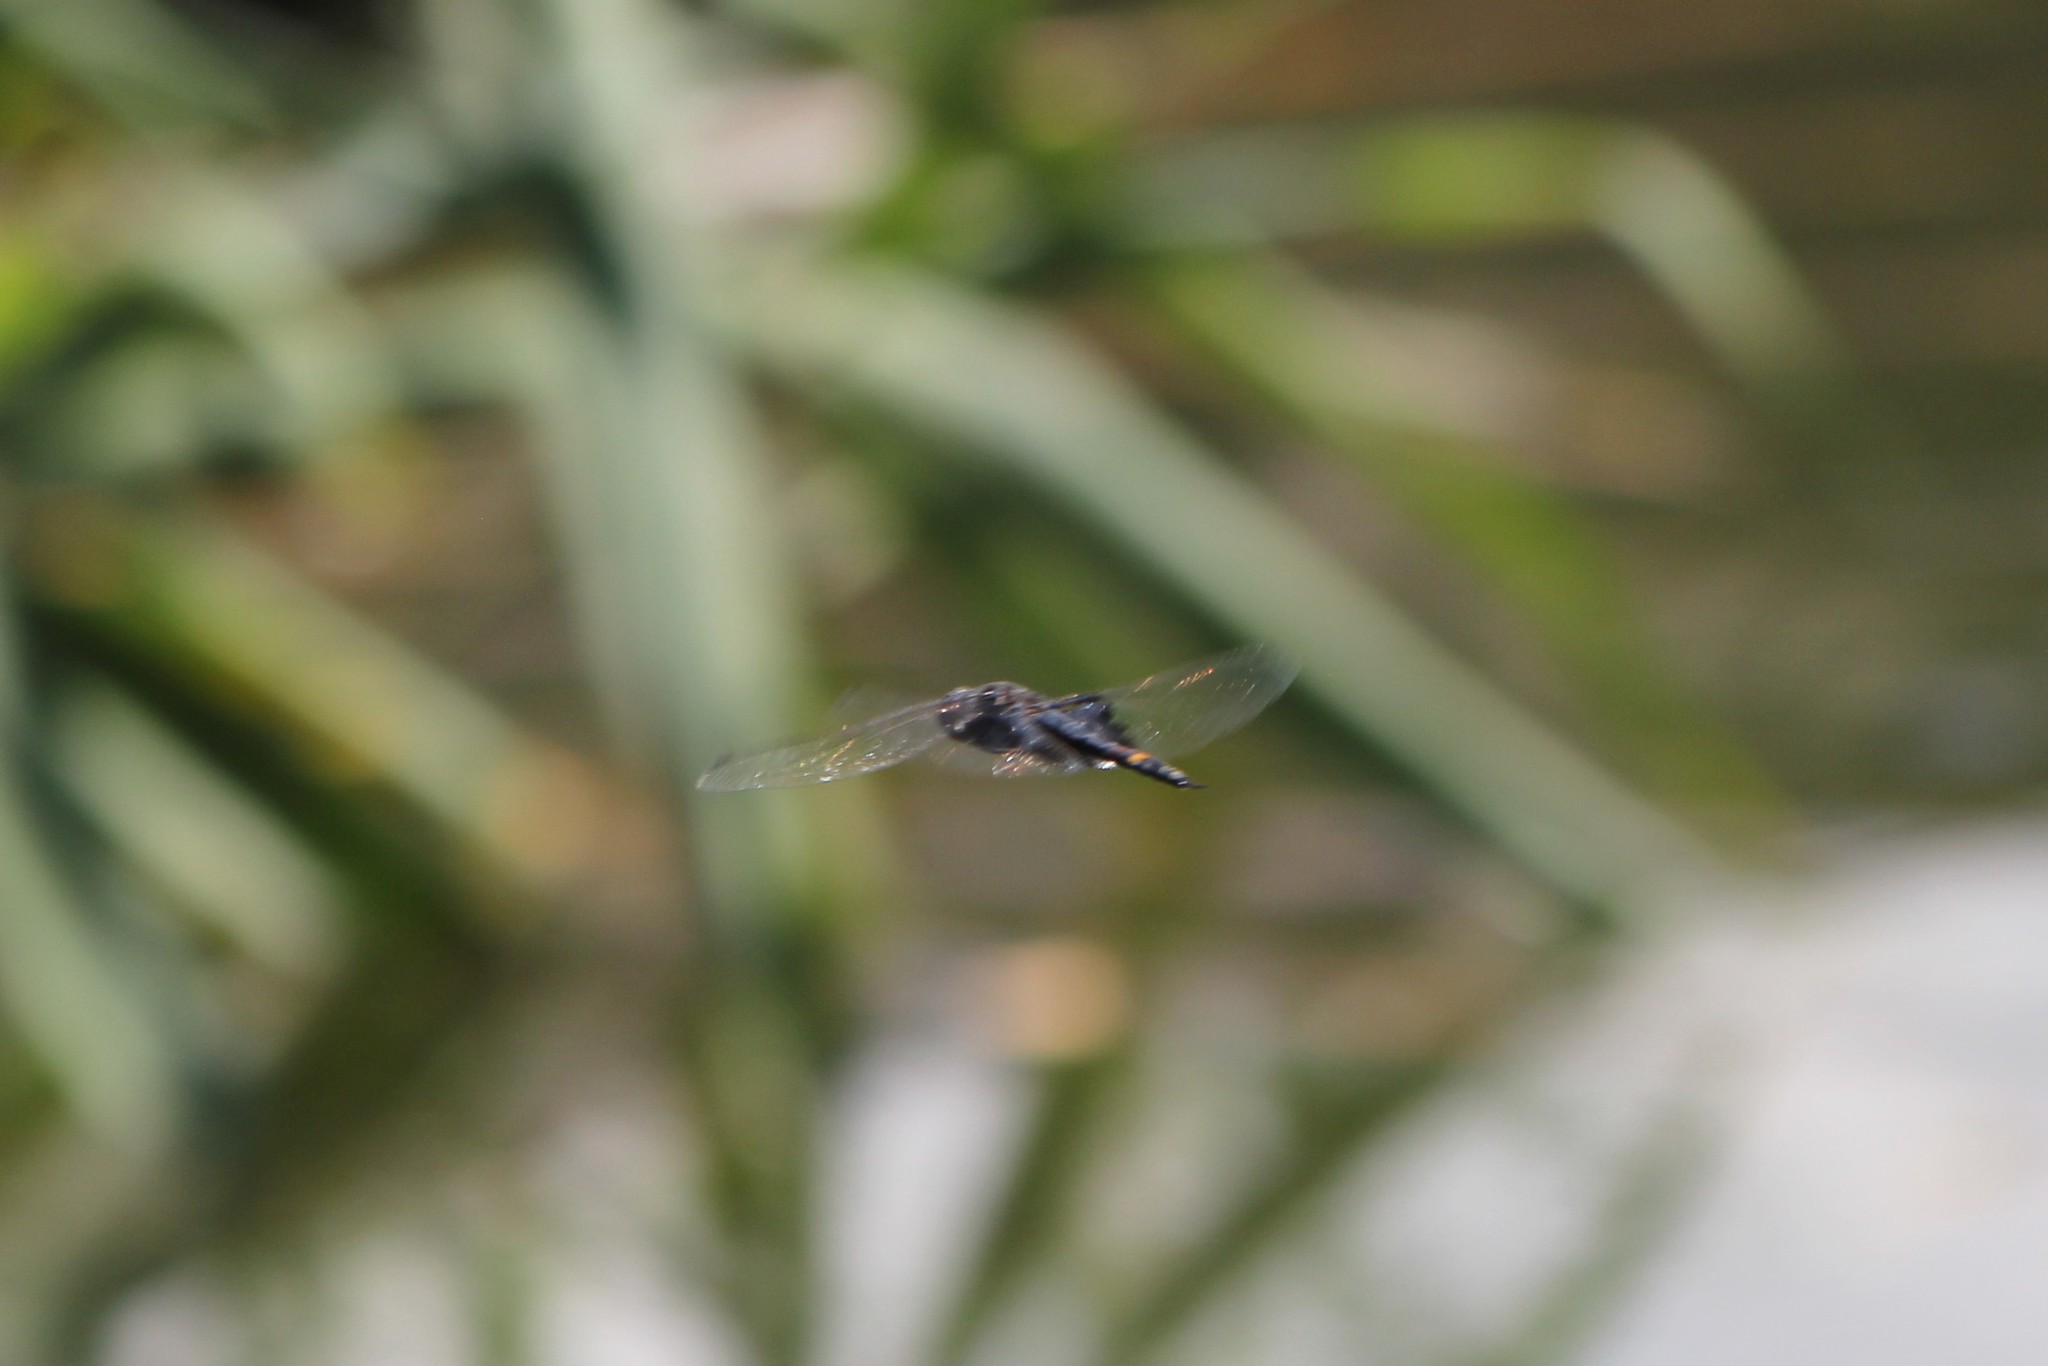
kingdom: Animalia
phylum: Arthropoda
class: Insecta
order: Odonata
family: Libellulidae
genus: Tramea
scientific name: Tramea lacerata
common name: Black saddlebags
